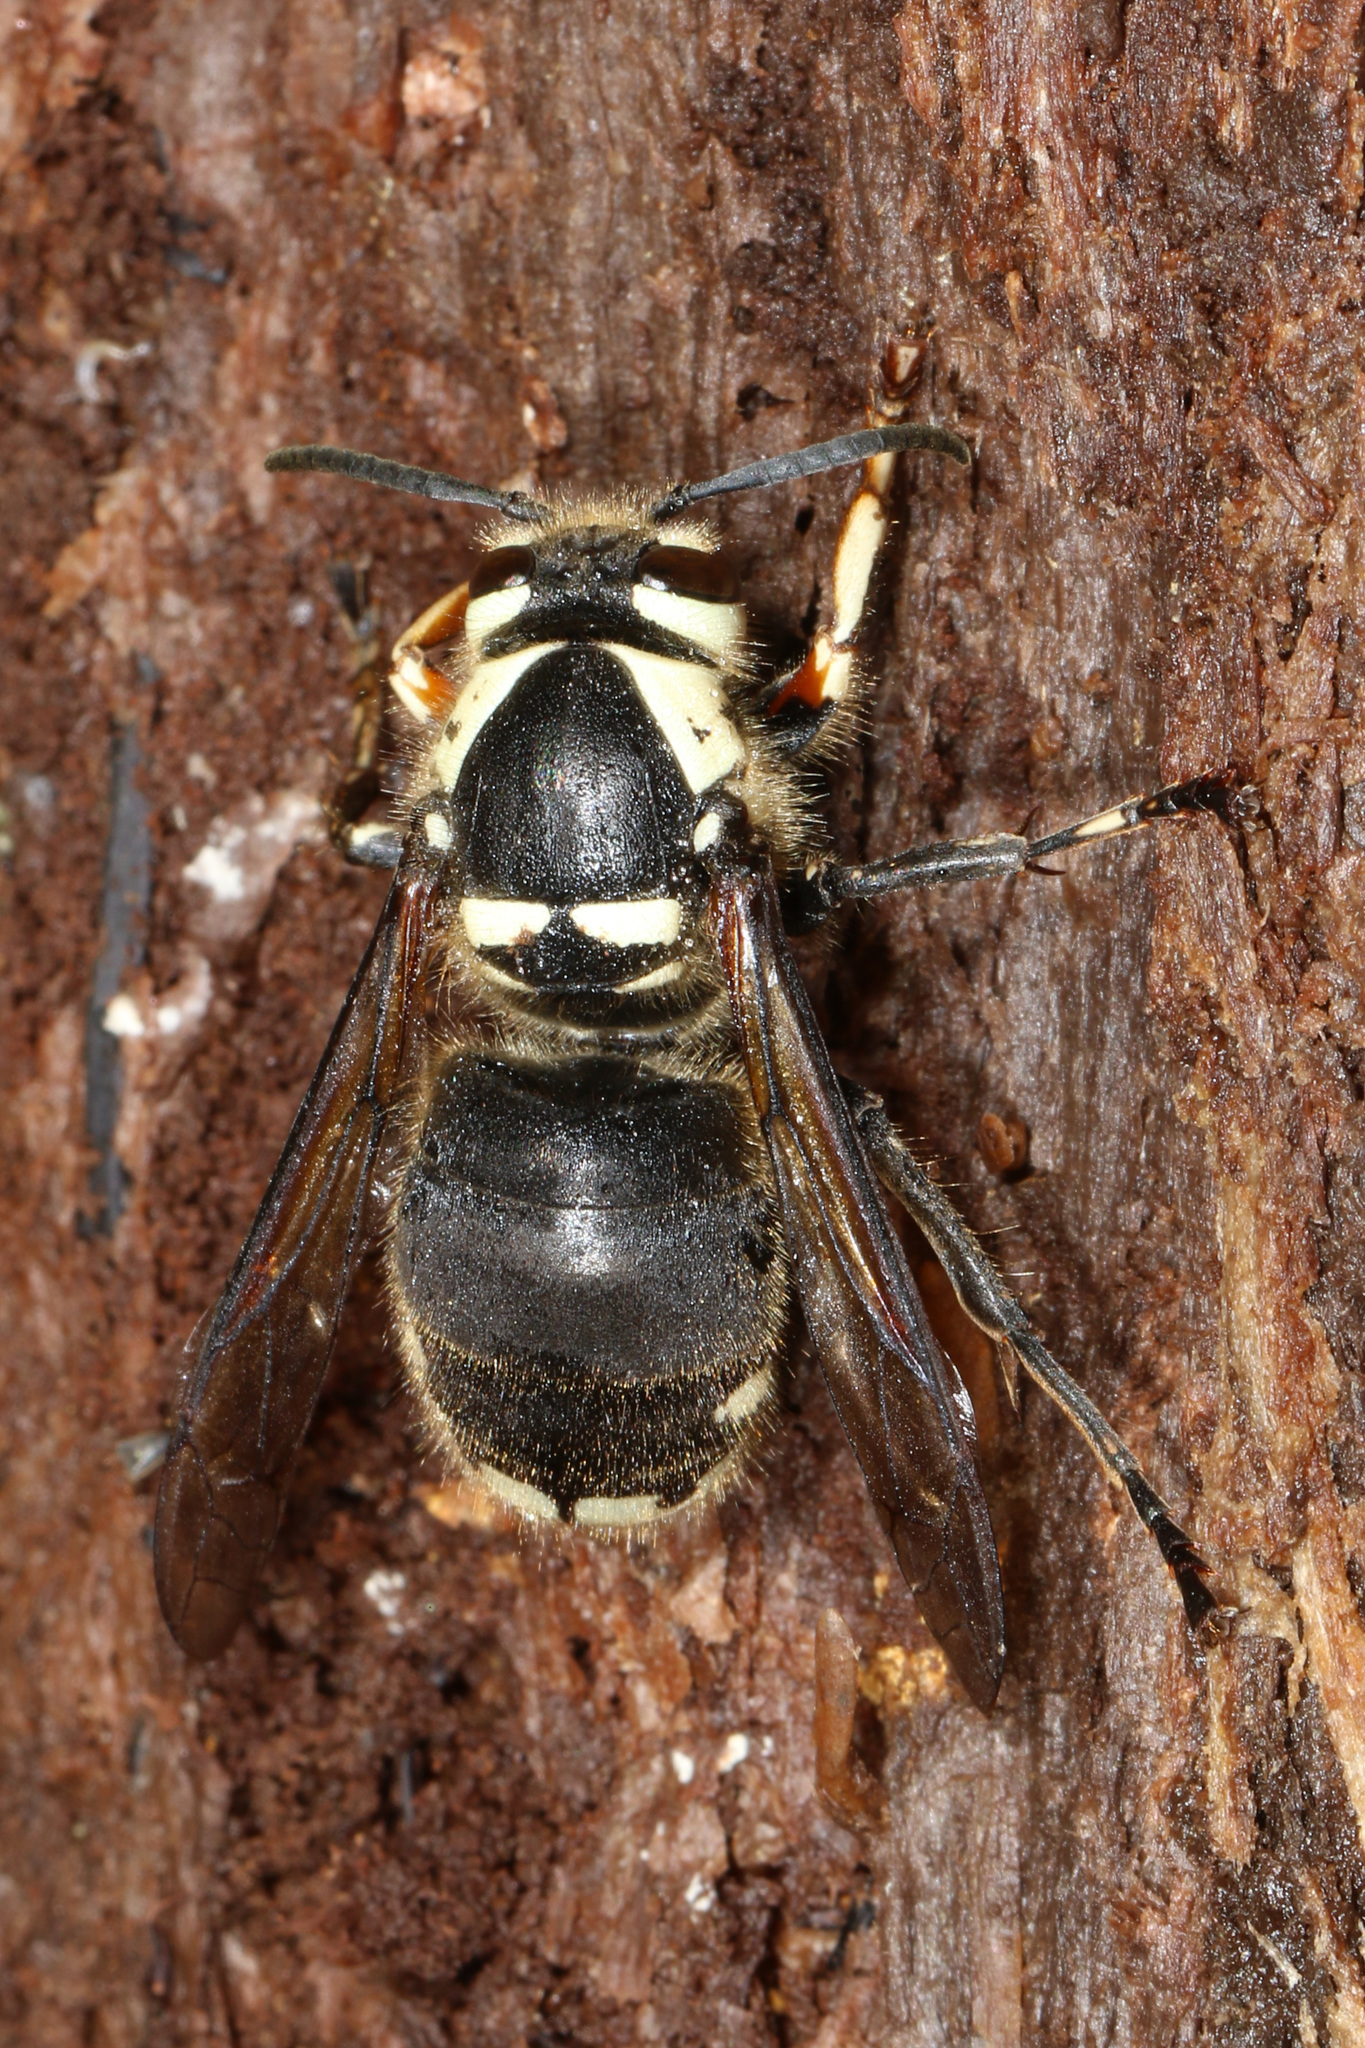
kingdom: Animalia
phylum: Arthropoda
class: Insecta
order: Hymenoptera
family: Vespidae
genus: Dolichovespula
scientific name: Dolichovespula maculata
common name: Bald-faced hornet
